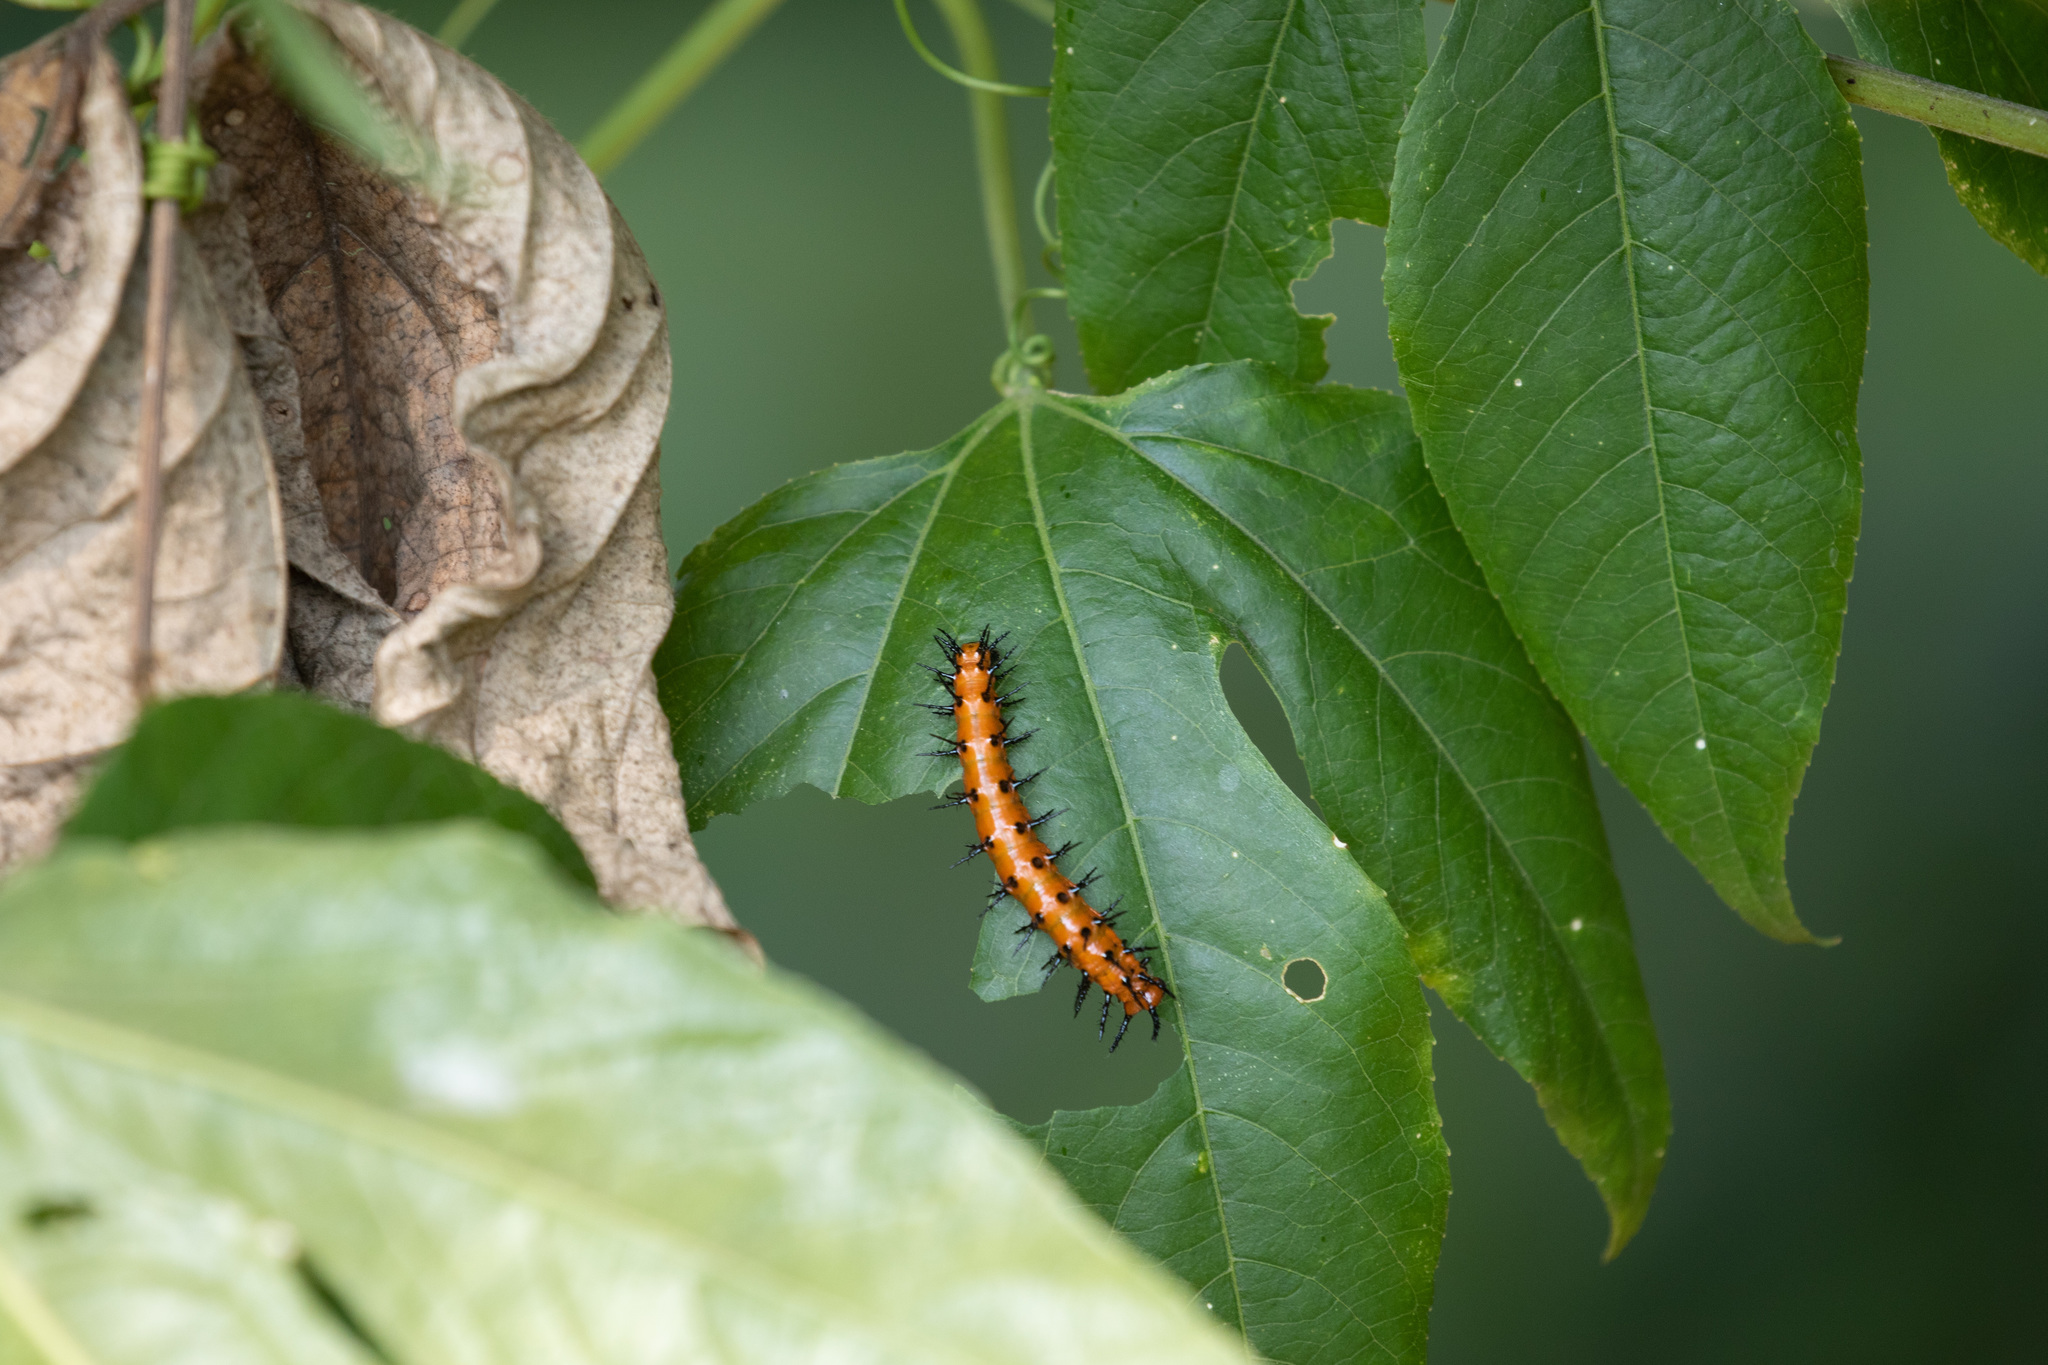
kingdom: Animalia
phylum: Arthropoda
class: Insecta
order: Lepidoptera
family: Nymphalidae
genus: Dione
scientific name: Dione vanillae
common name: Gulf fritillary
